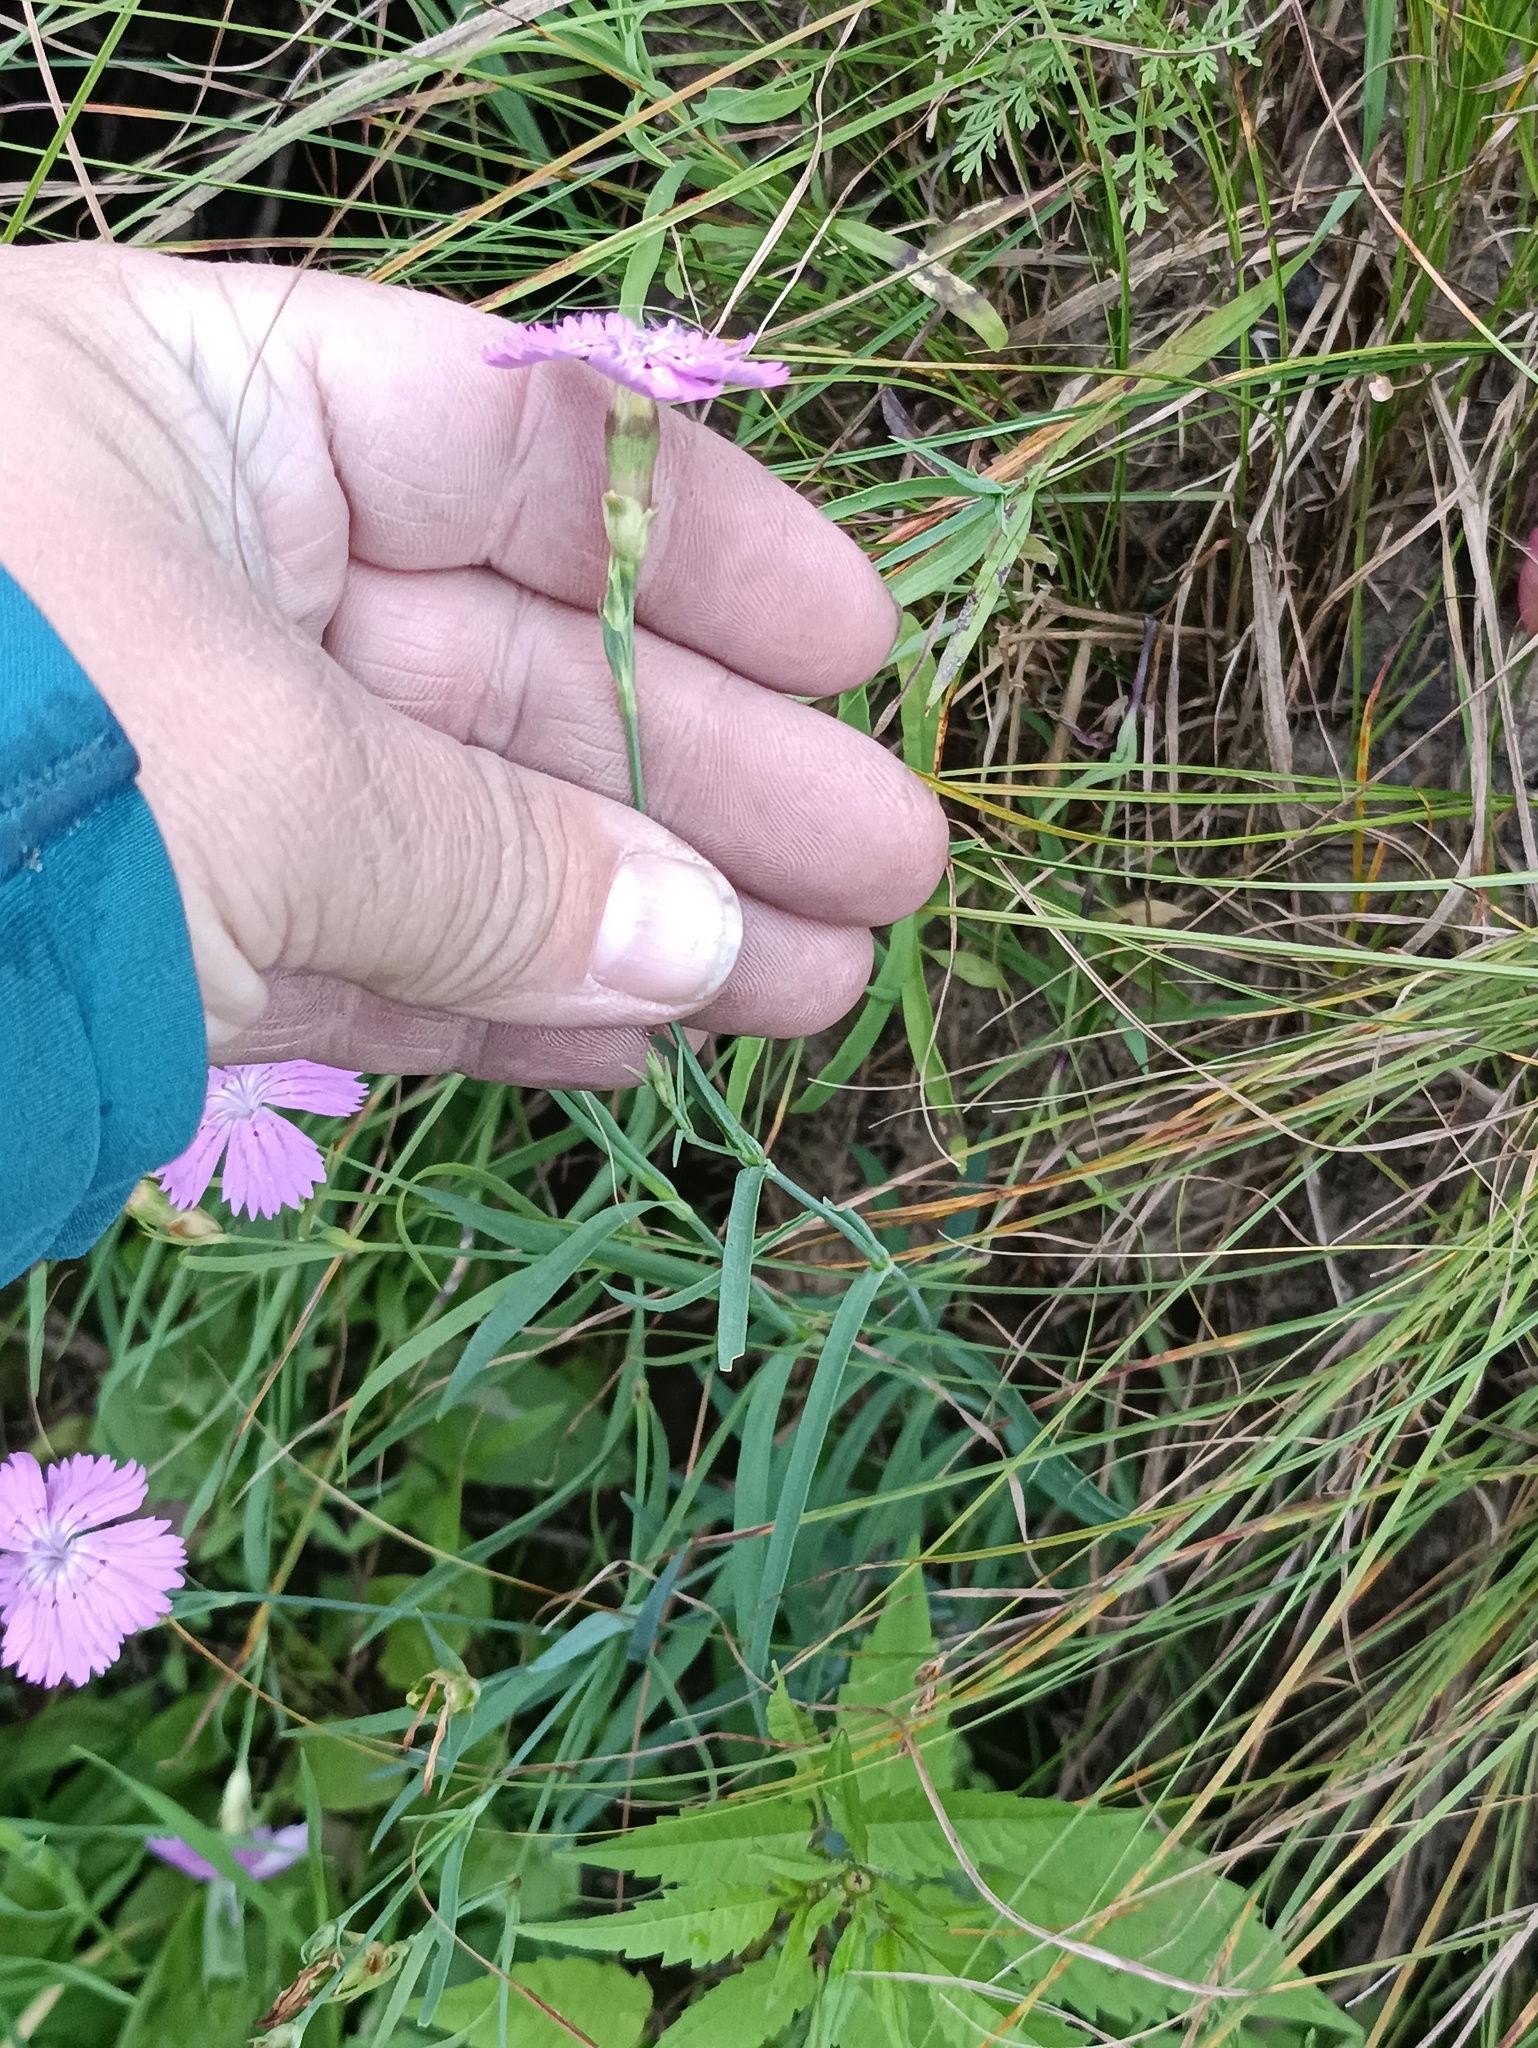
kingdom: Plantae
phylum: Tracheophyta
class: Magnoliopsida
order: Caryophyllales
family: Caryophyllaceae
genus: Dianthus
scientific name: Dianthus chinensis
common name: Rainbow pink
